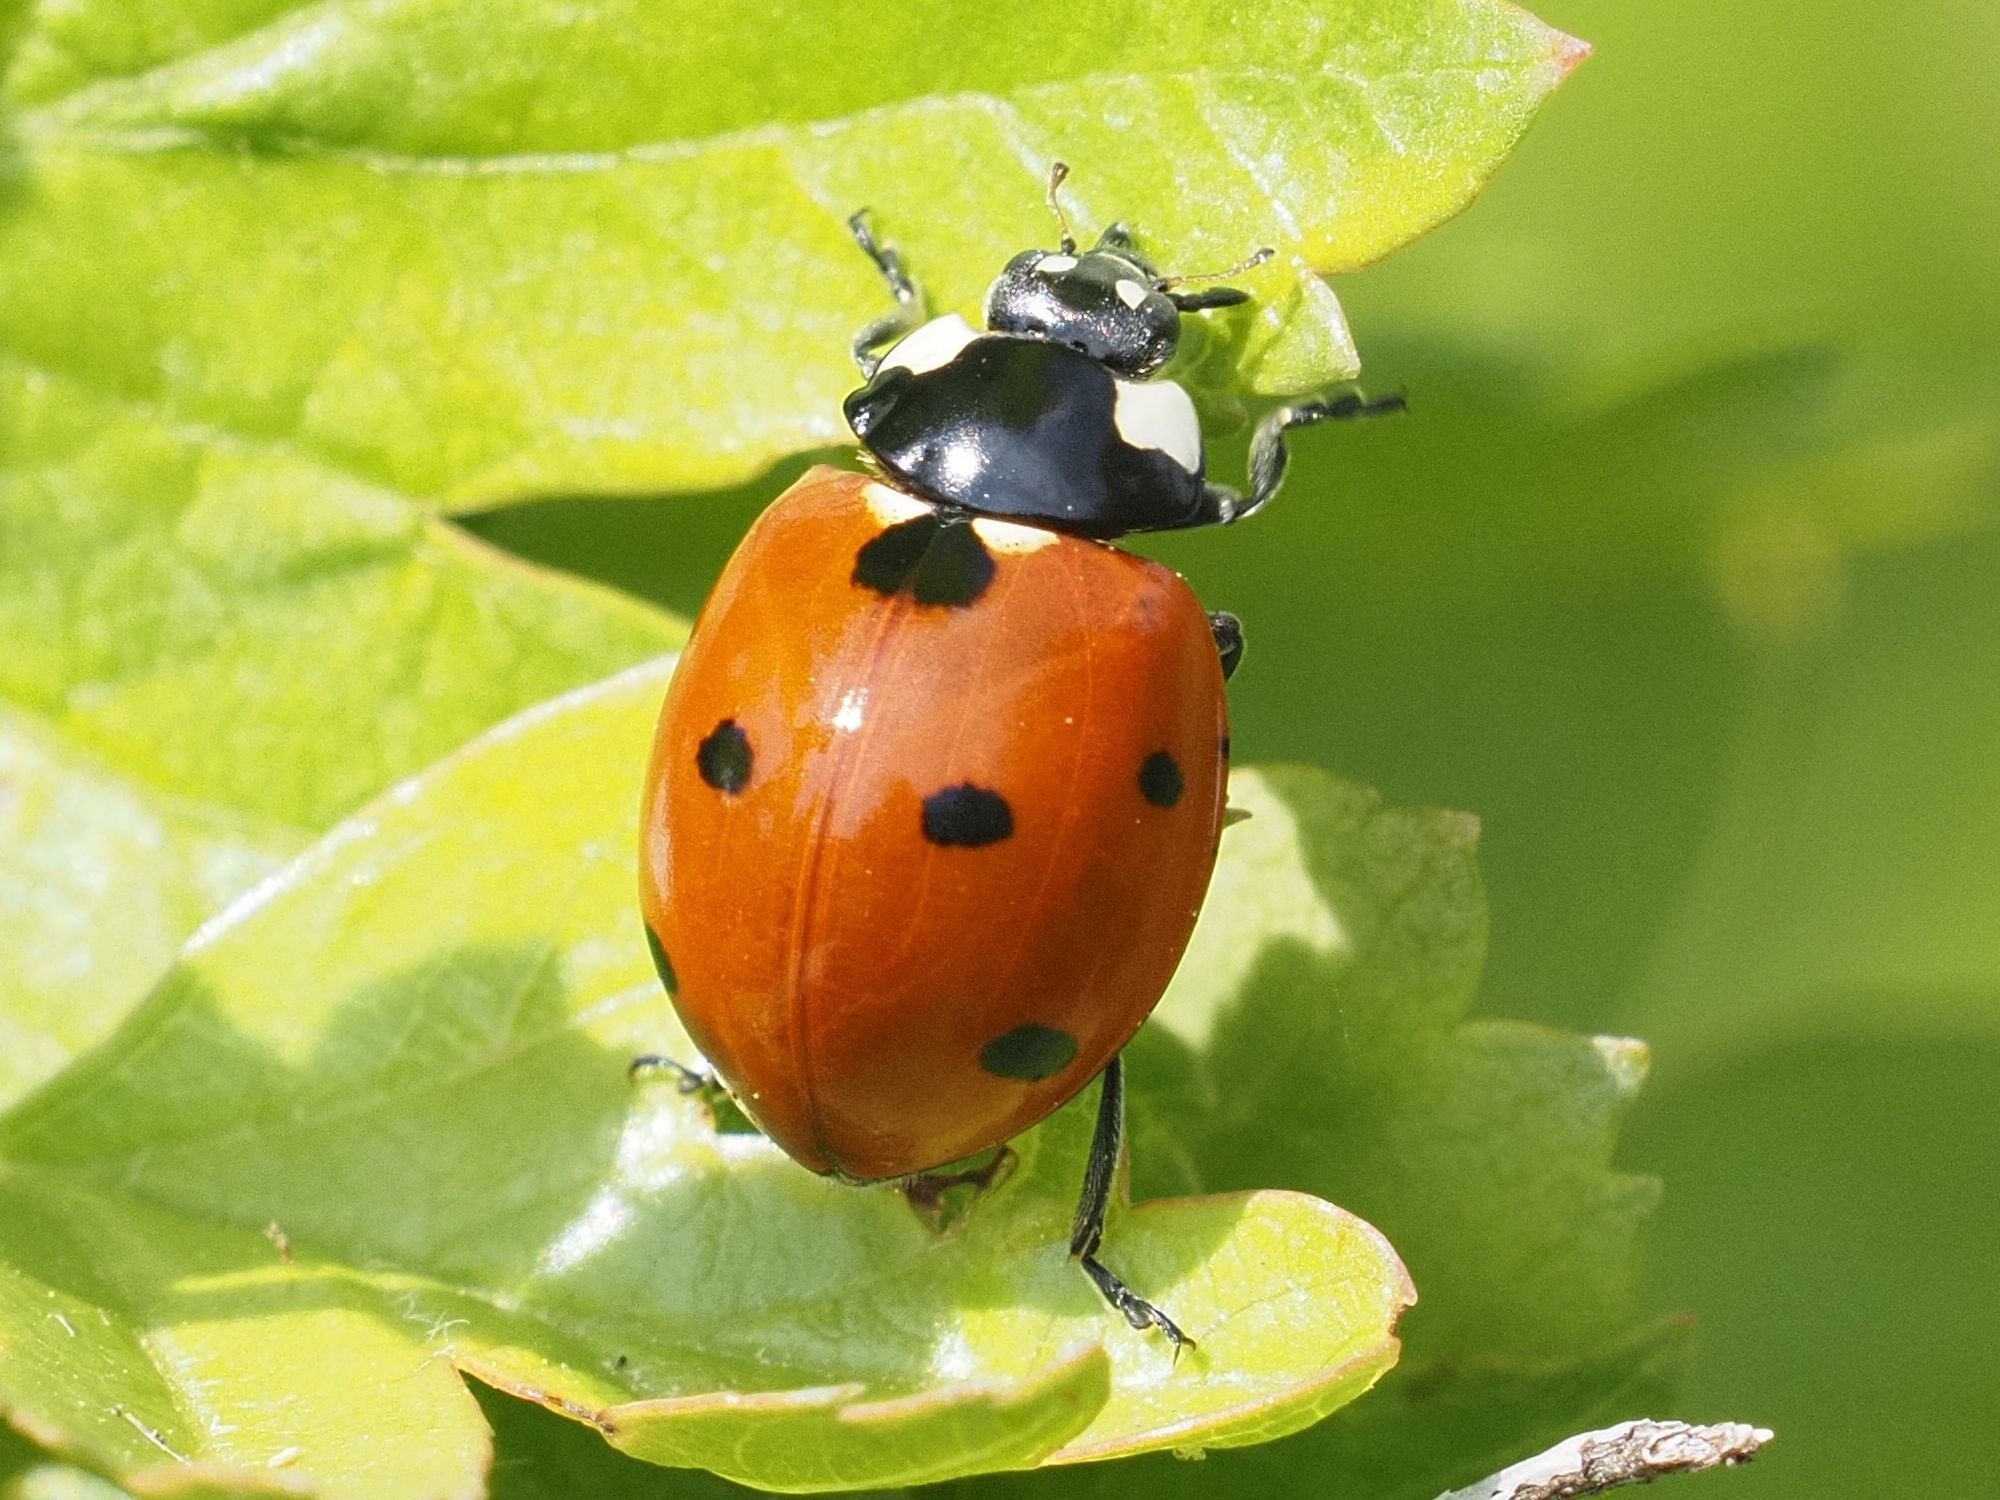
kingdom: Animalia
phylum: Arthropoda
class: Insecta
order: Coleoptera
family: Coccinellidae
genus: Coccinella
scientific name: Coccinella septempunctata
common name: Sevenspotted lady beetle
